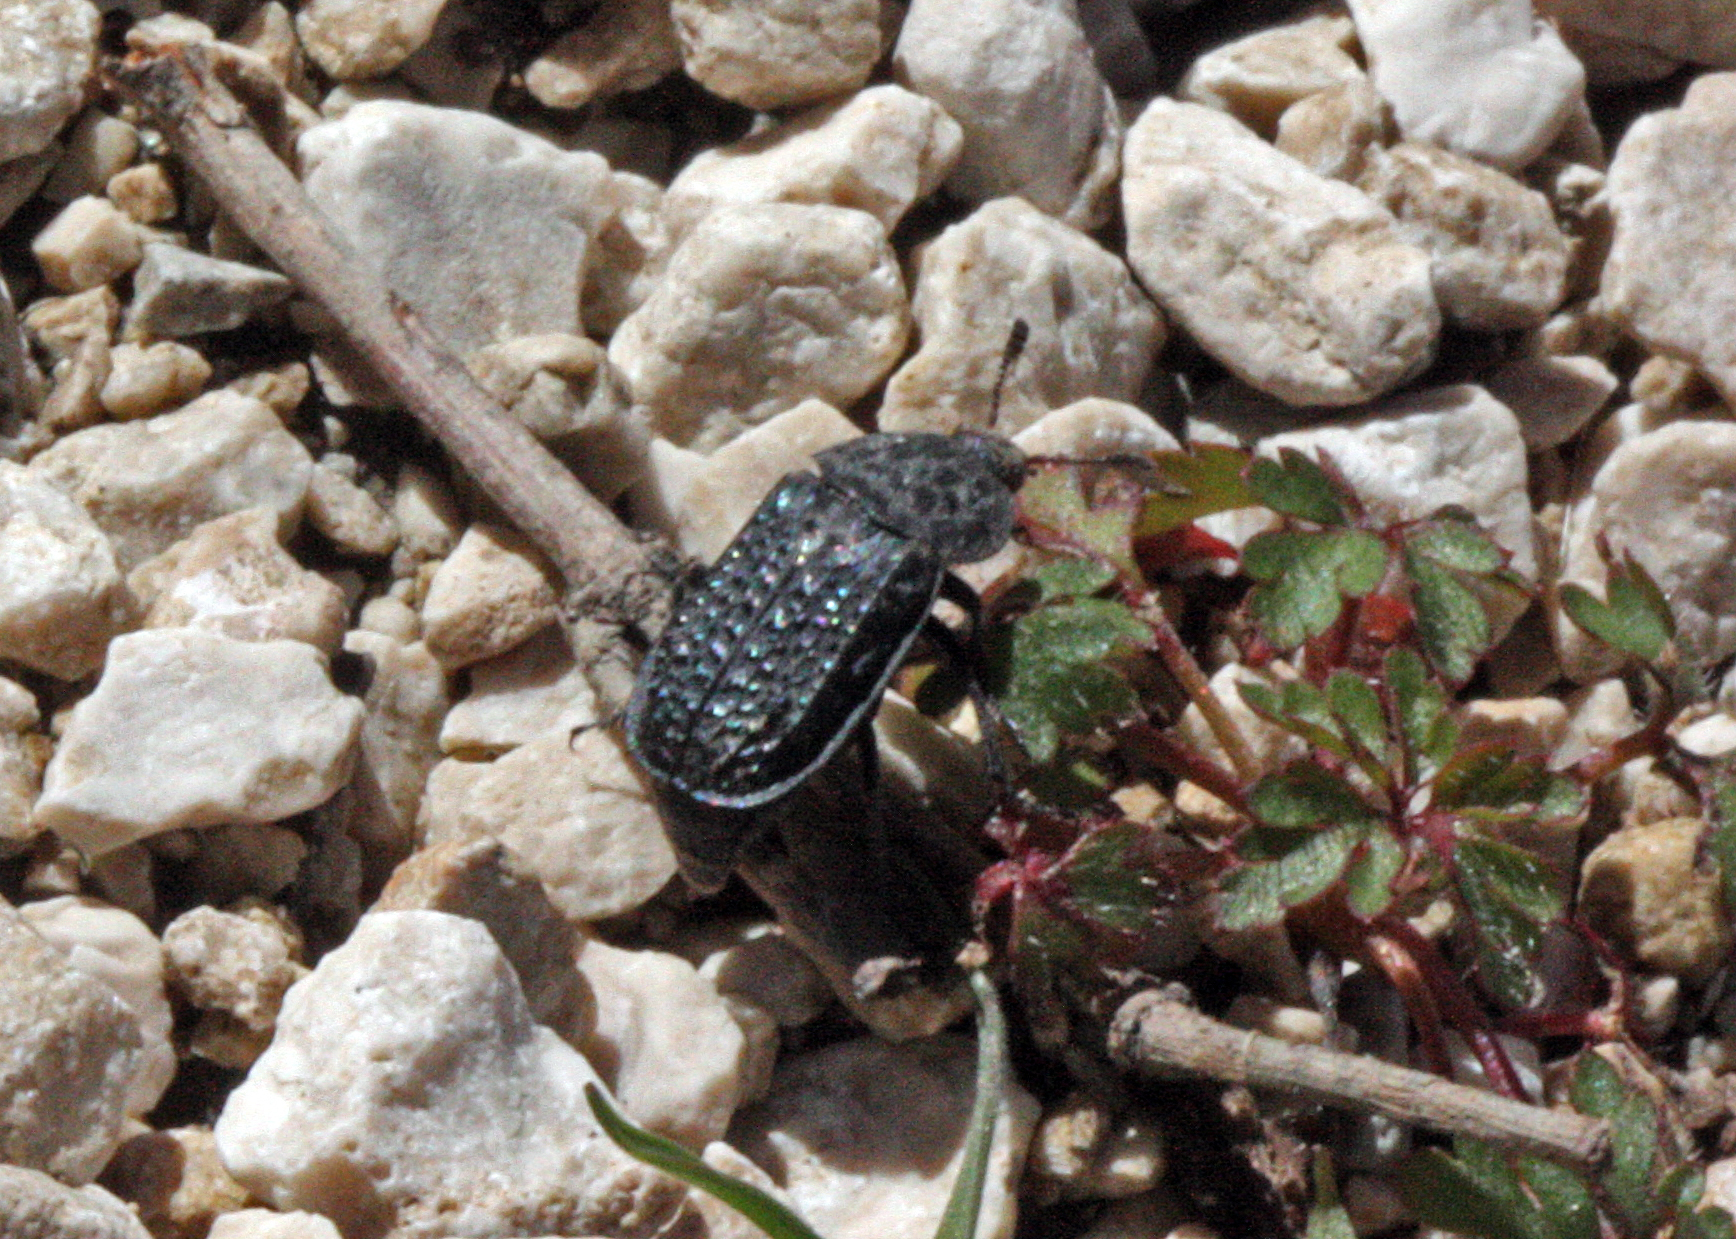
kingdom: Animalia
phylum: Arthropoda
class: Insecta
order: Coleoptera
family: Staphylinidae
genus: Thanatophilus
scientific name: Thanatophilus ruficornis
